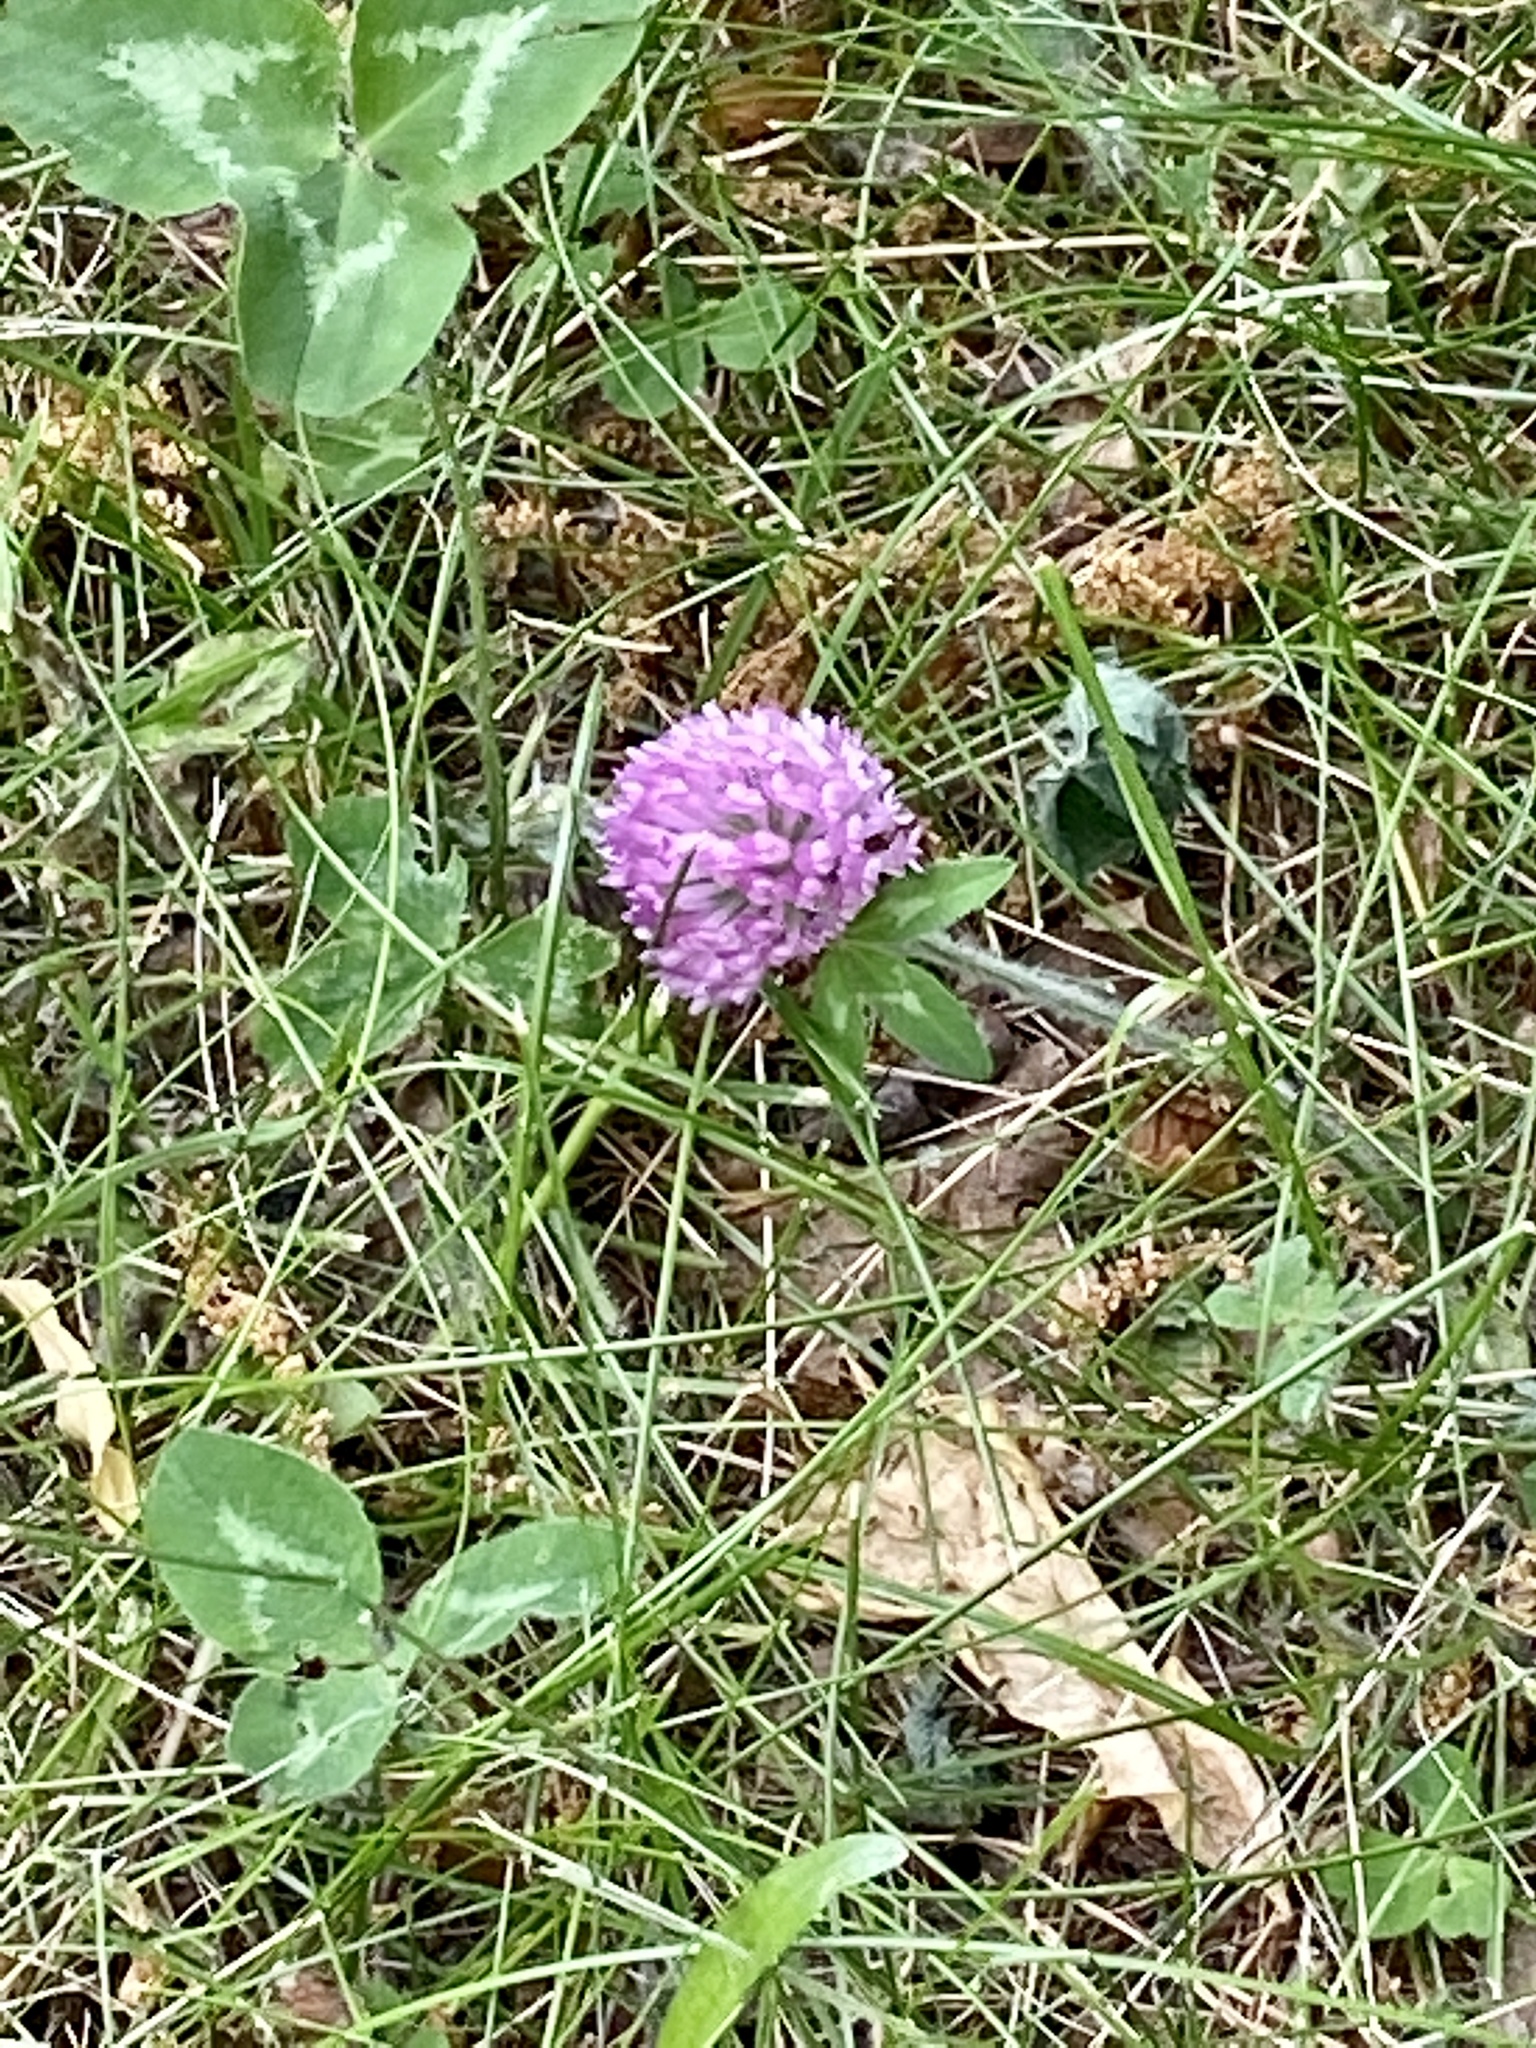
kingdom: Plantae
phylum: Tracheophyta
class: Magnoliopsida
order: Fabales
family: Fabaceae
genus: Trifolium
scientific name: Trifolium pratense
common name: Red clover
